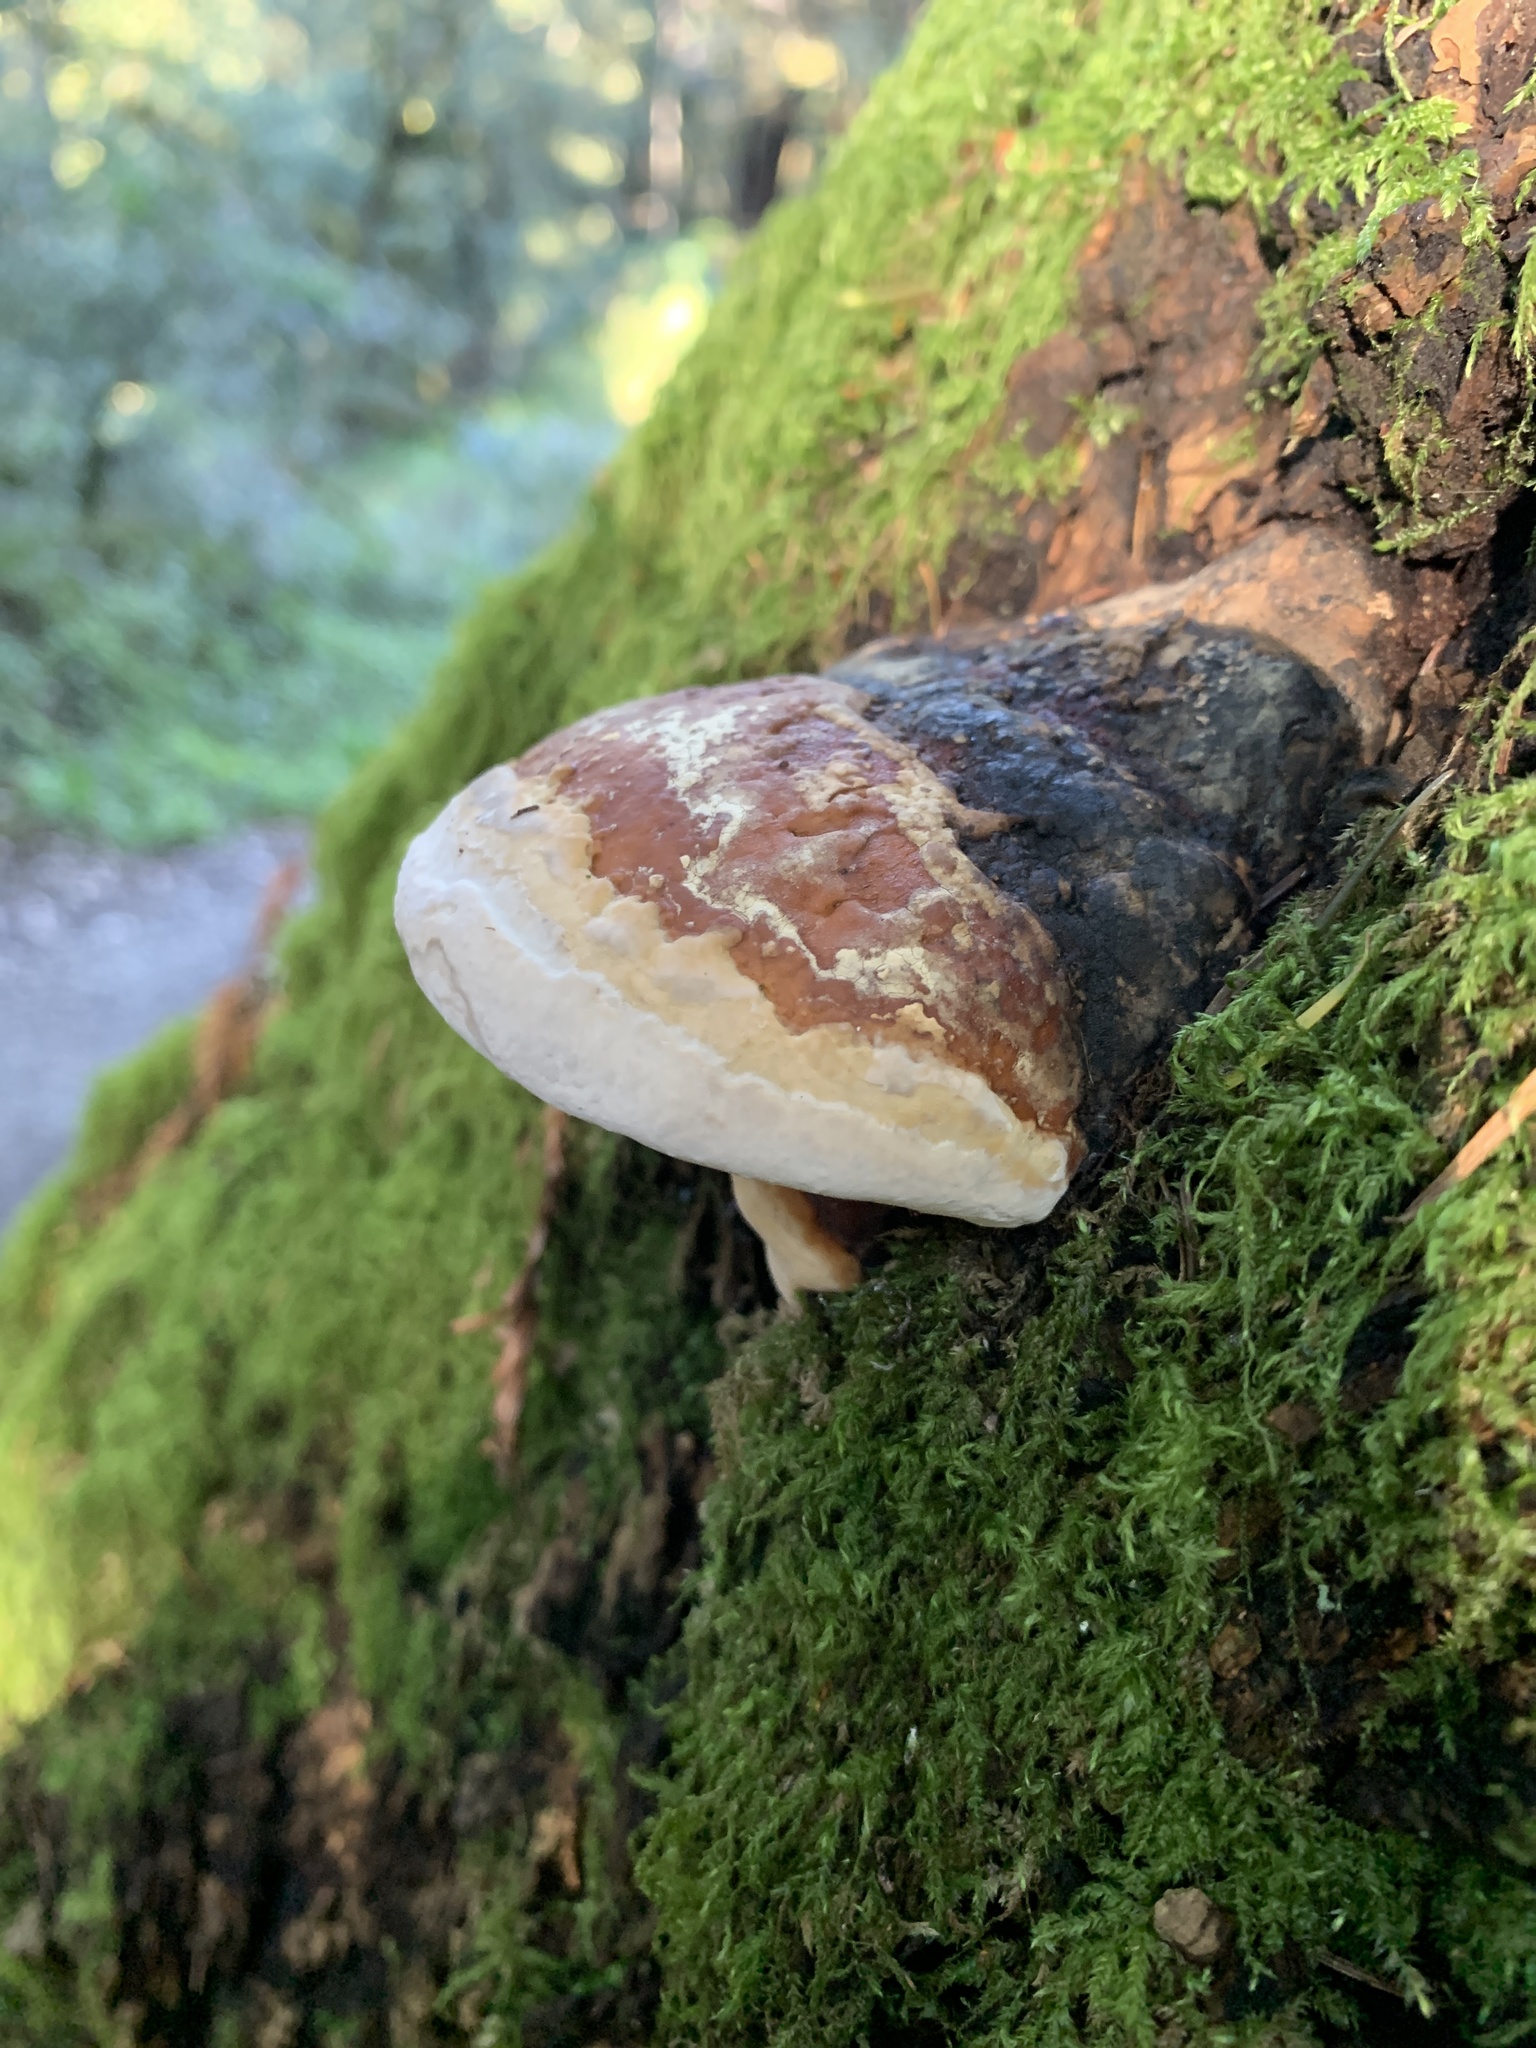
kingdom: Fungi
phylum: Basidiomycota
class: Agaricomycetes
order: Polyporales
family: Fomitopsidaceae
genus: Fomitopsis
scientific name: Fomitopsis mounceae
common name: Northern red belt
